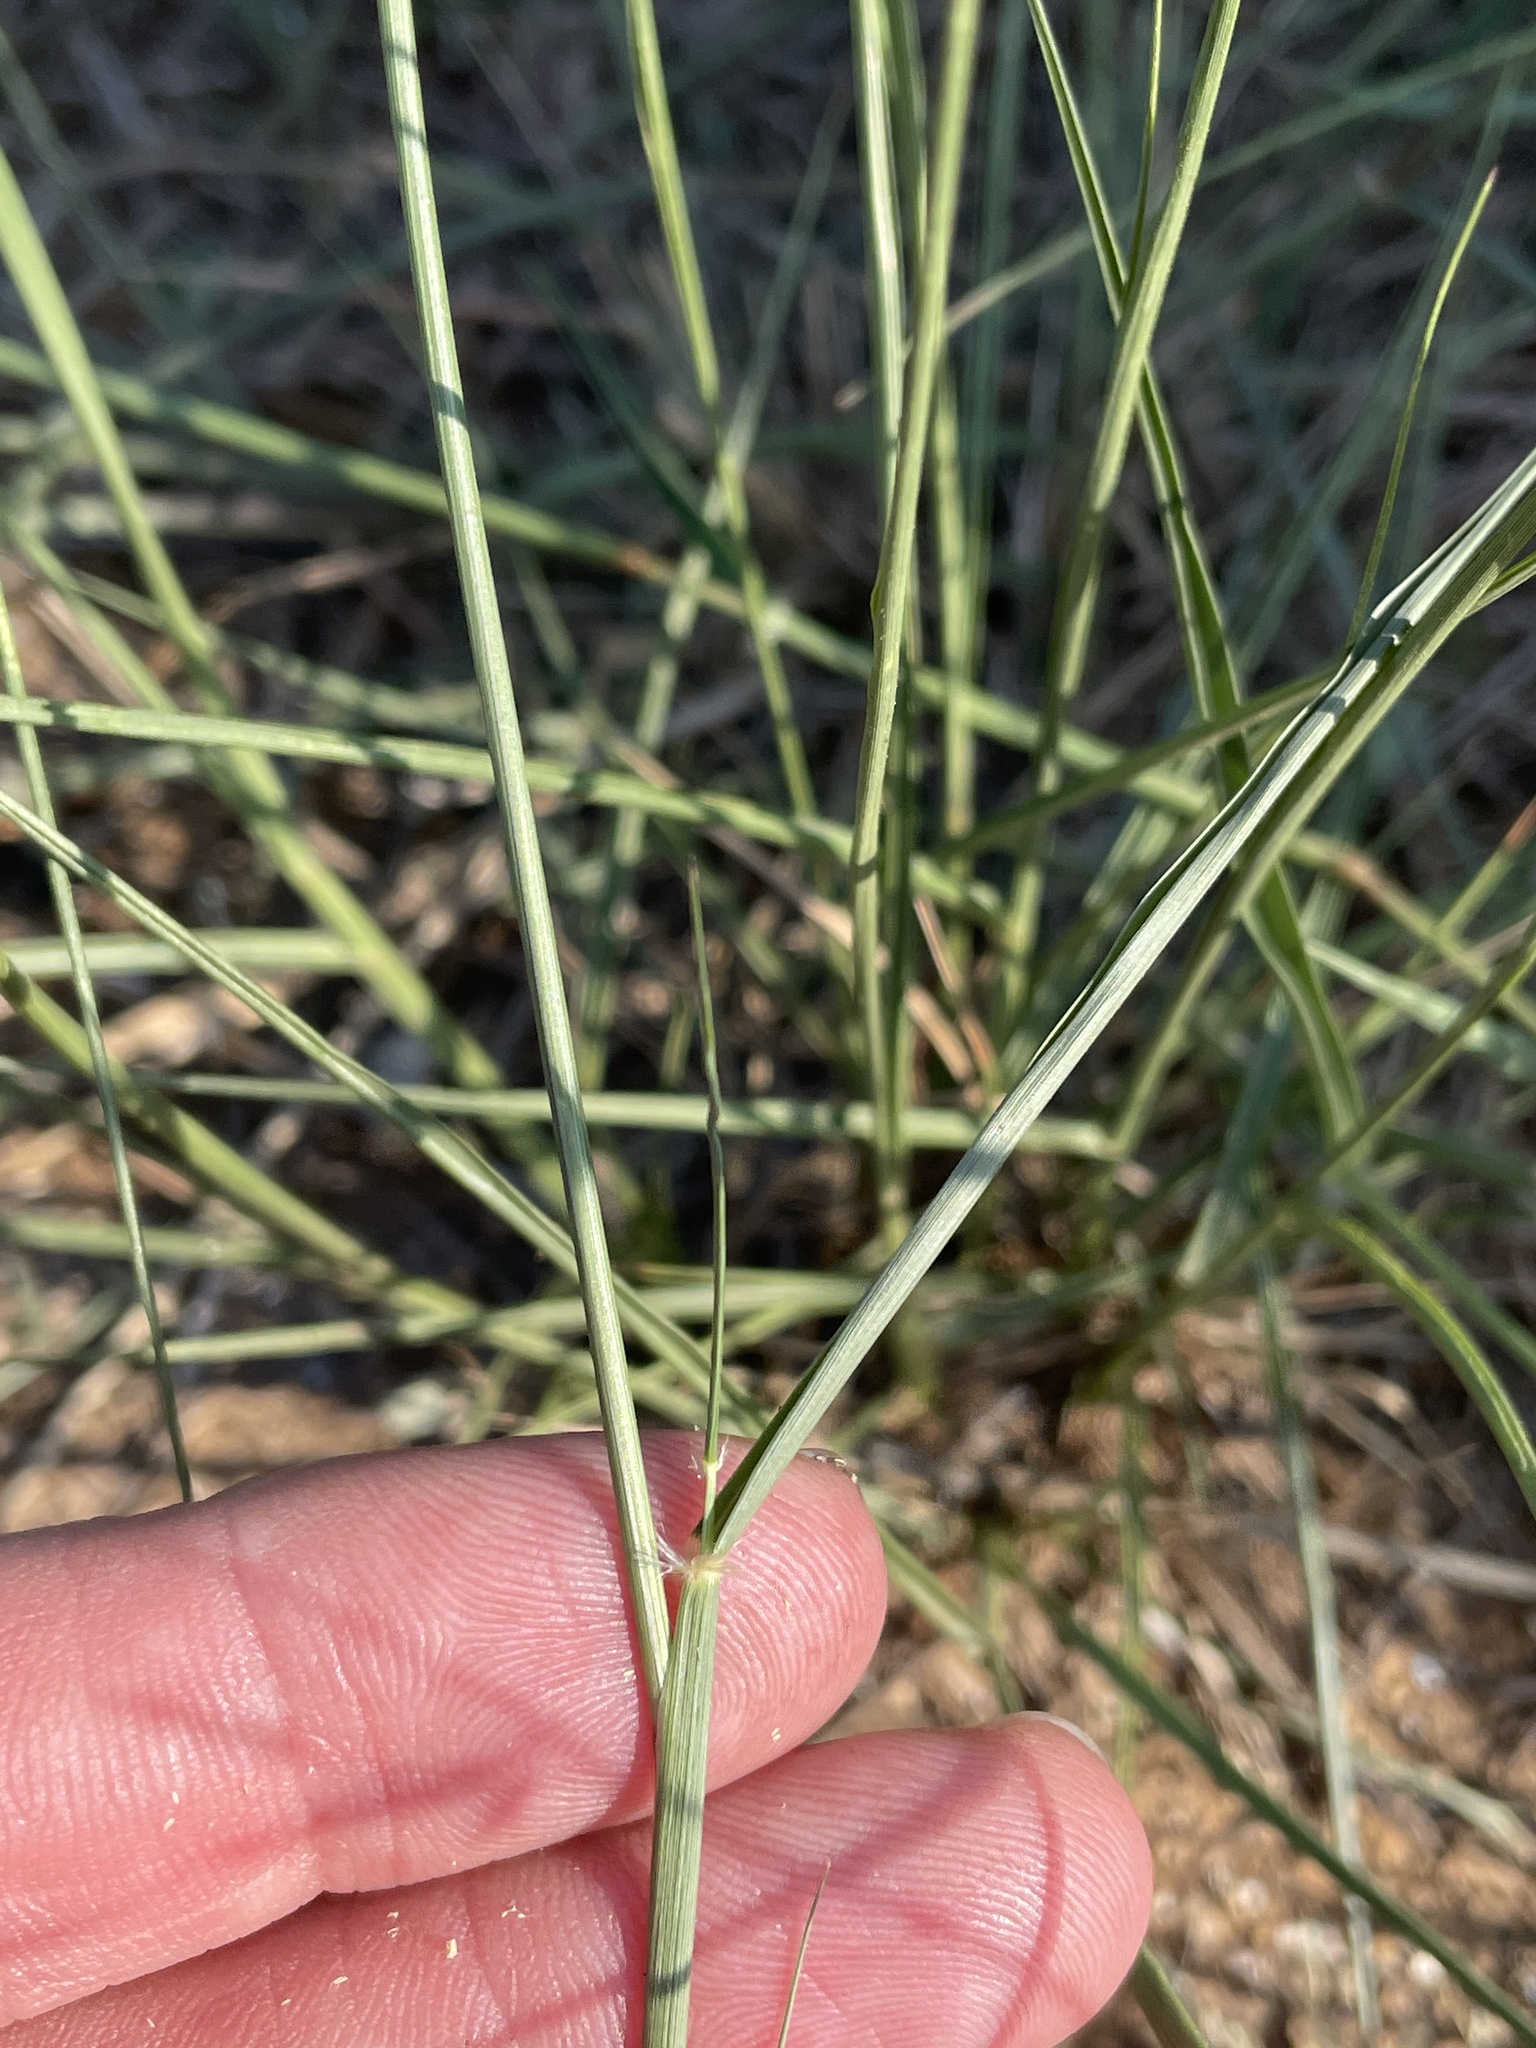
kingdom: Plantae
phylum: Tracheophyta
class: Liliopsida
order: Poales
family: Poaceae
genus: Sporobolus
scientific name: Sporobolus cryptandrus
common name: Sand dropseed
